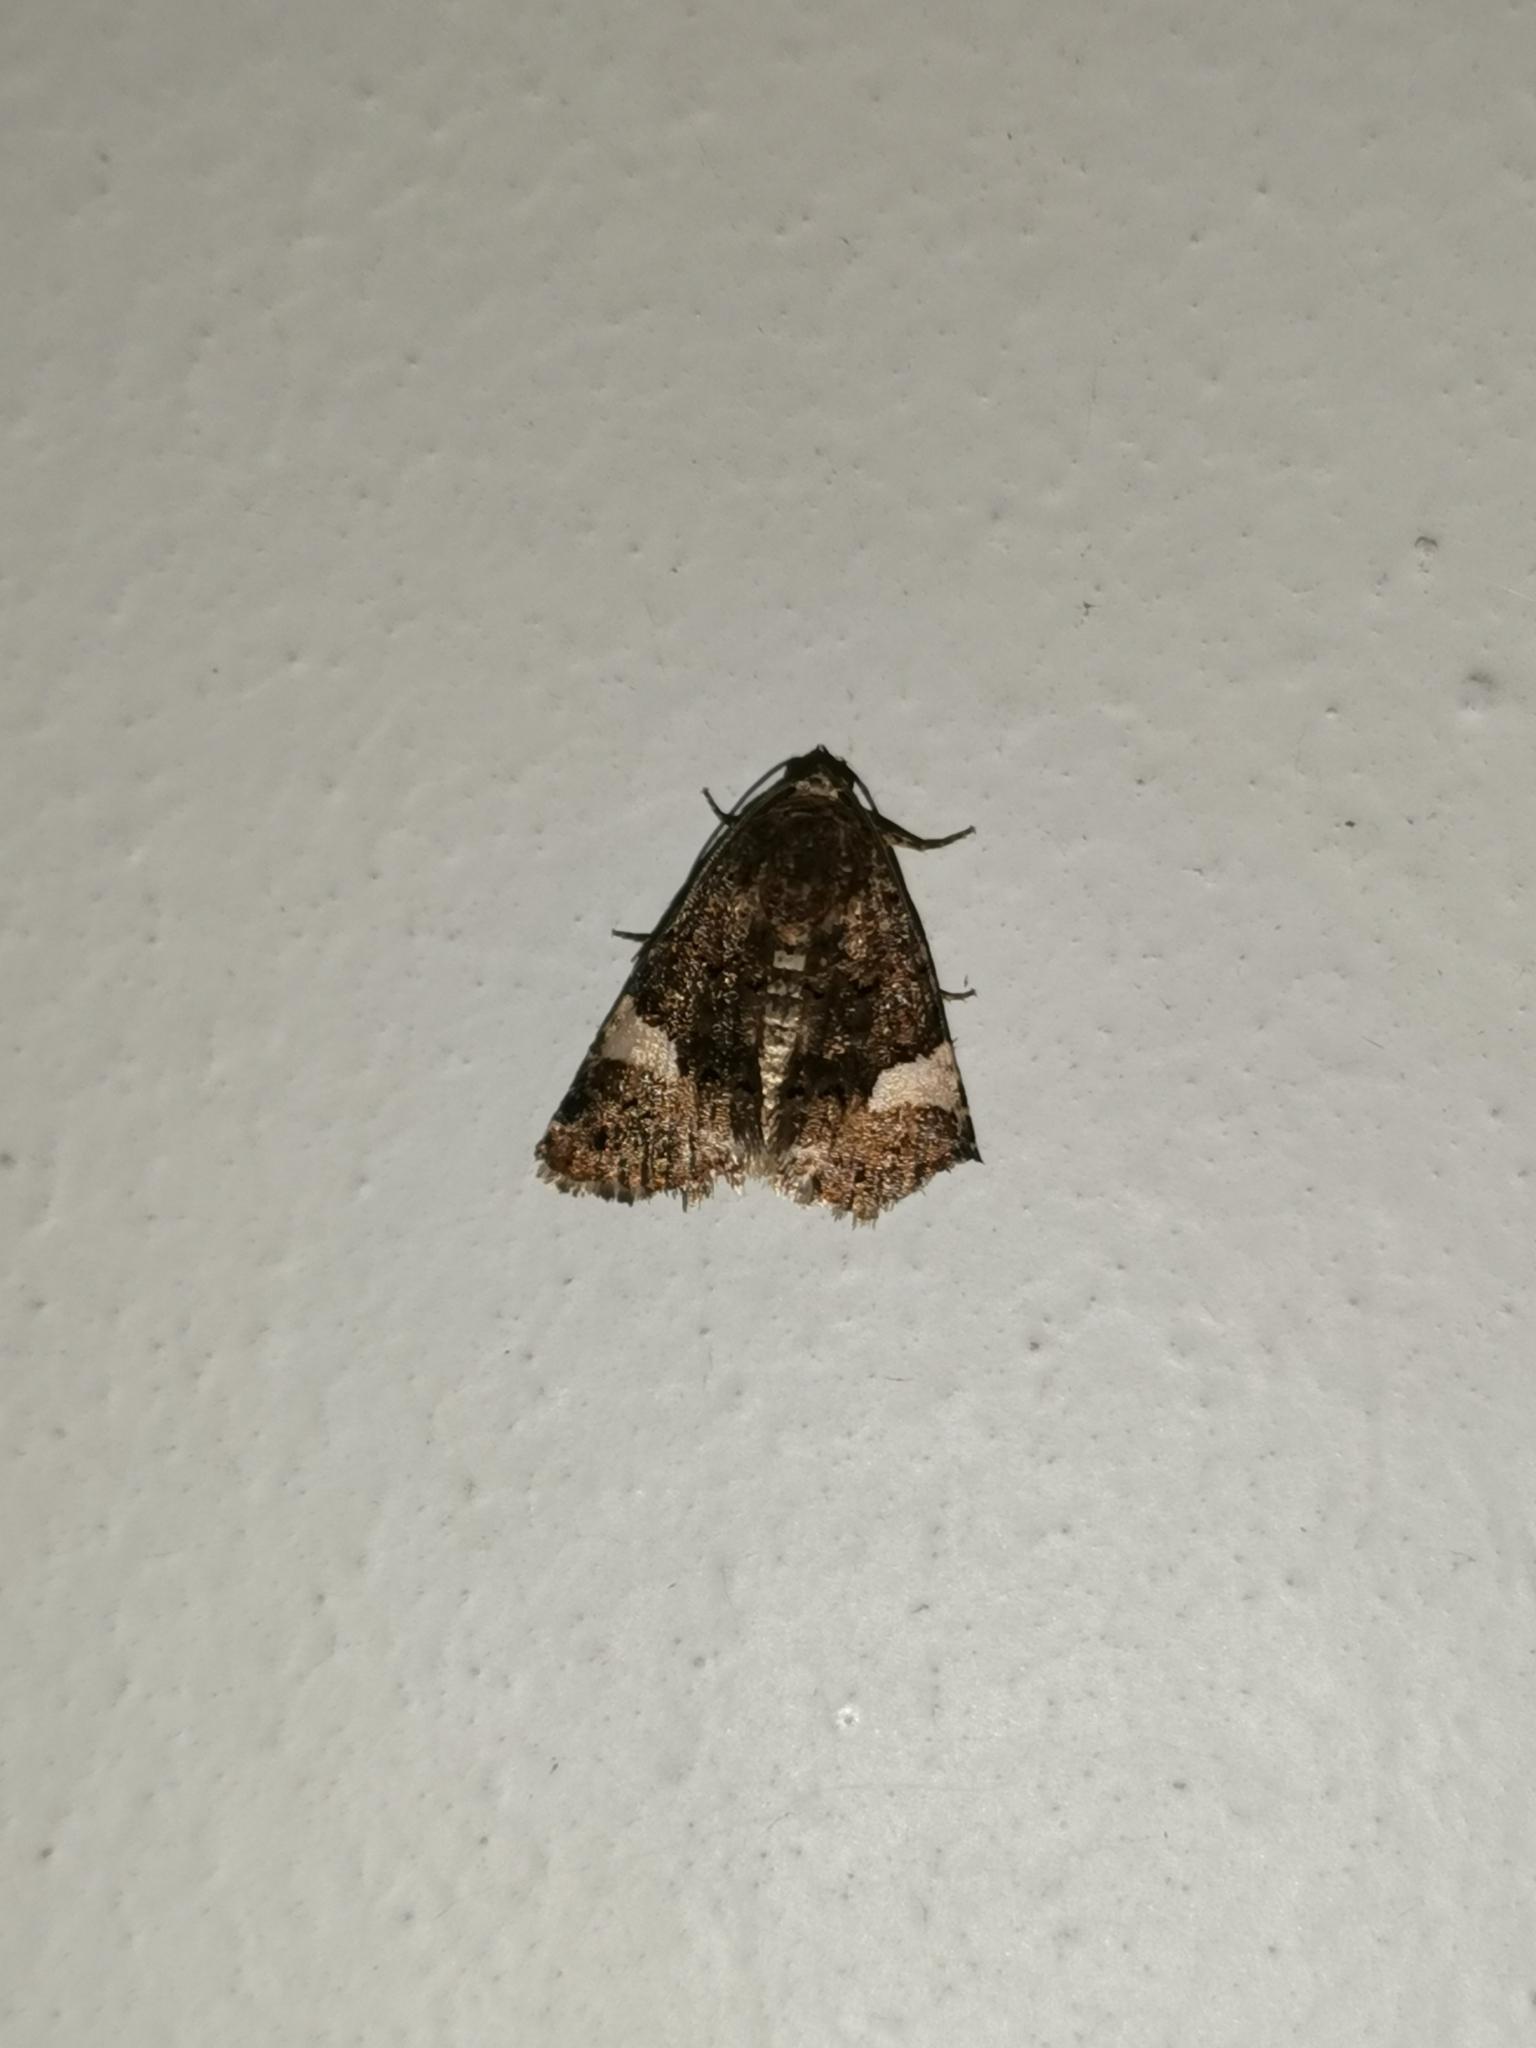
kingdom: Animalia
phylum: Arthropoda
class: Insecta
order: Lepidoptera
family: Erebidae
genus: Tyta
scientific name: Tyta luctuosa
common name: Four-spotted
